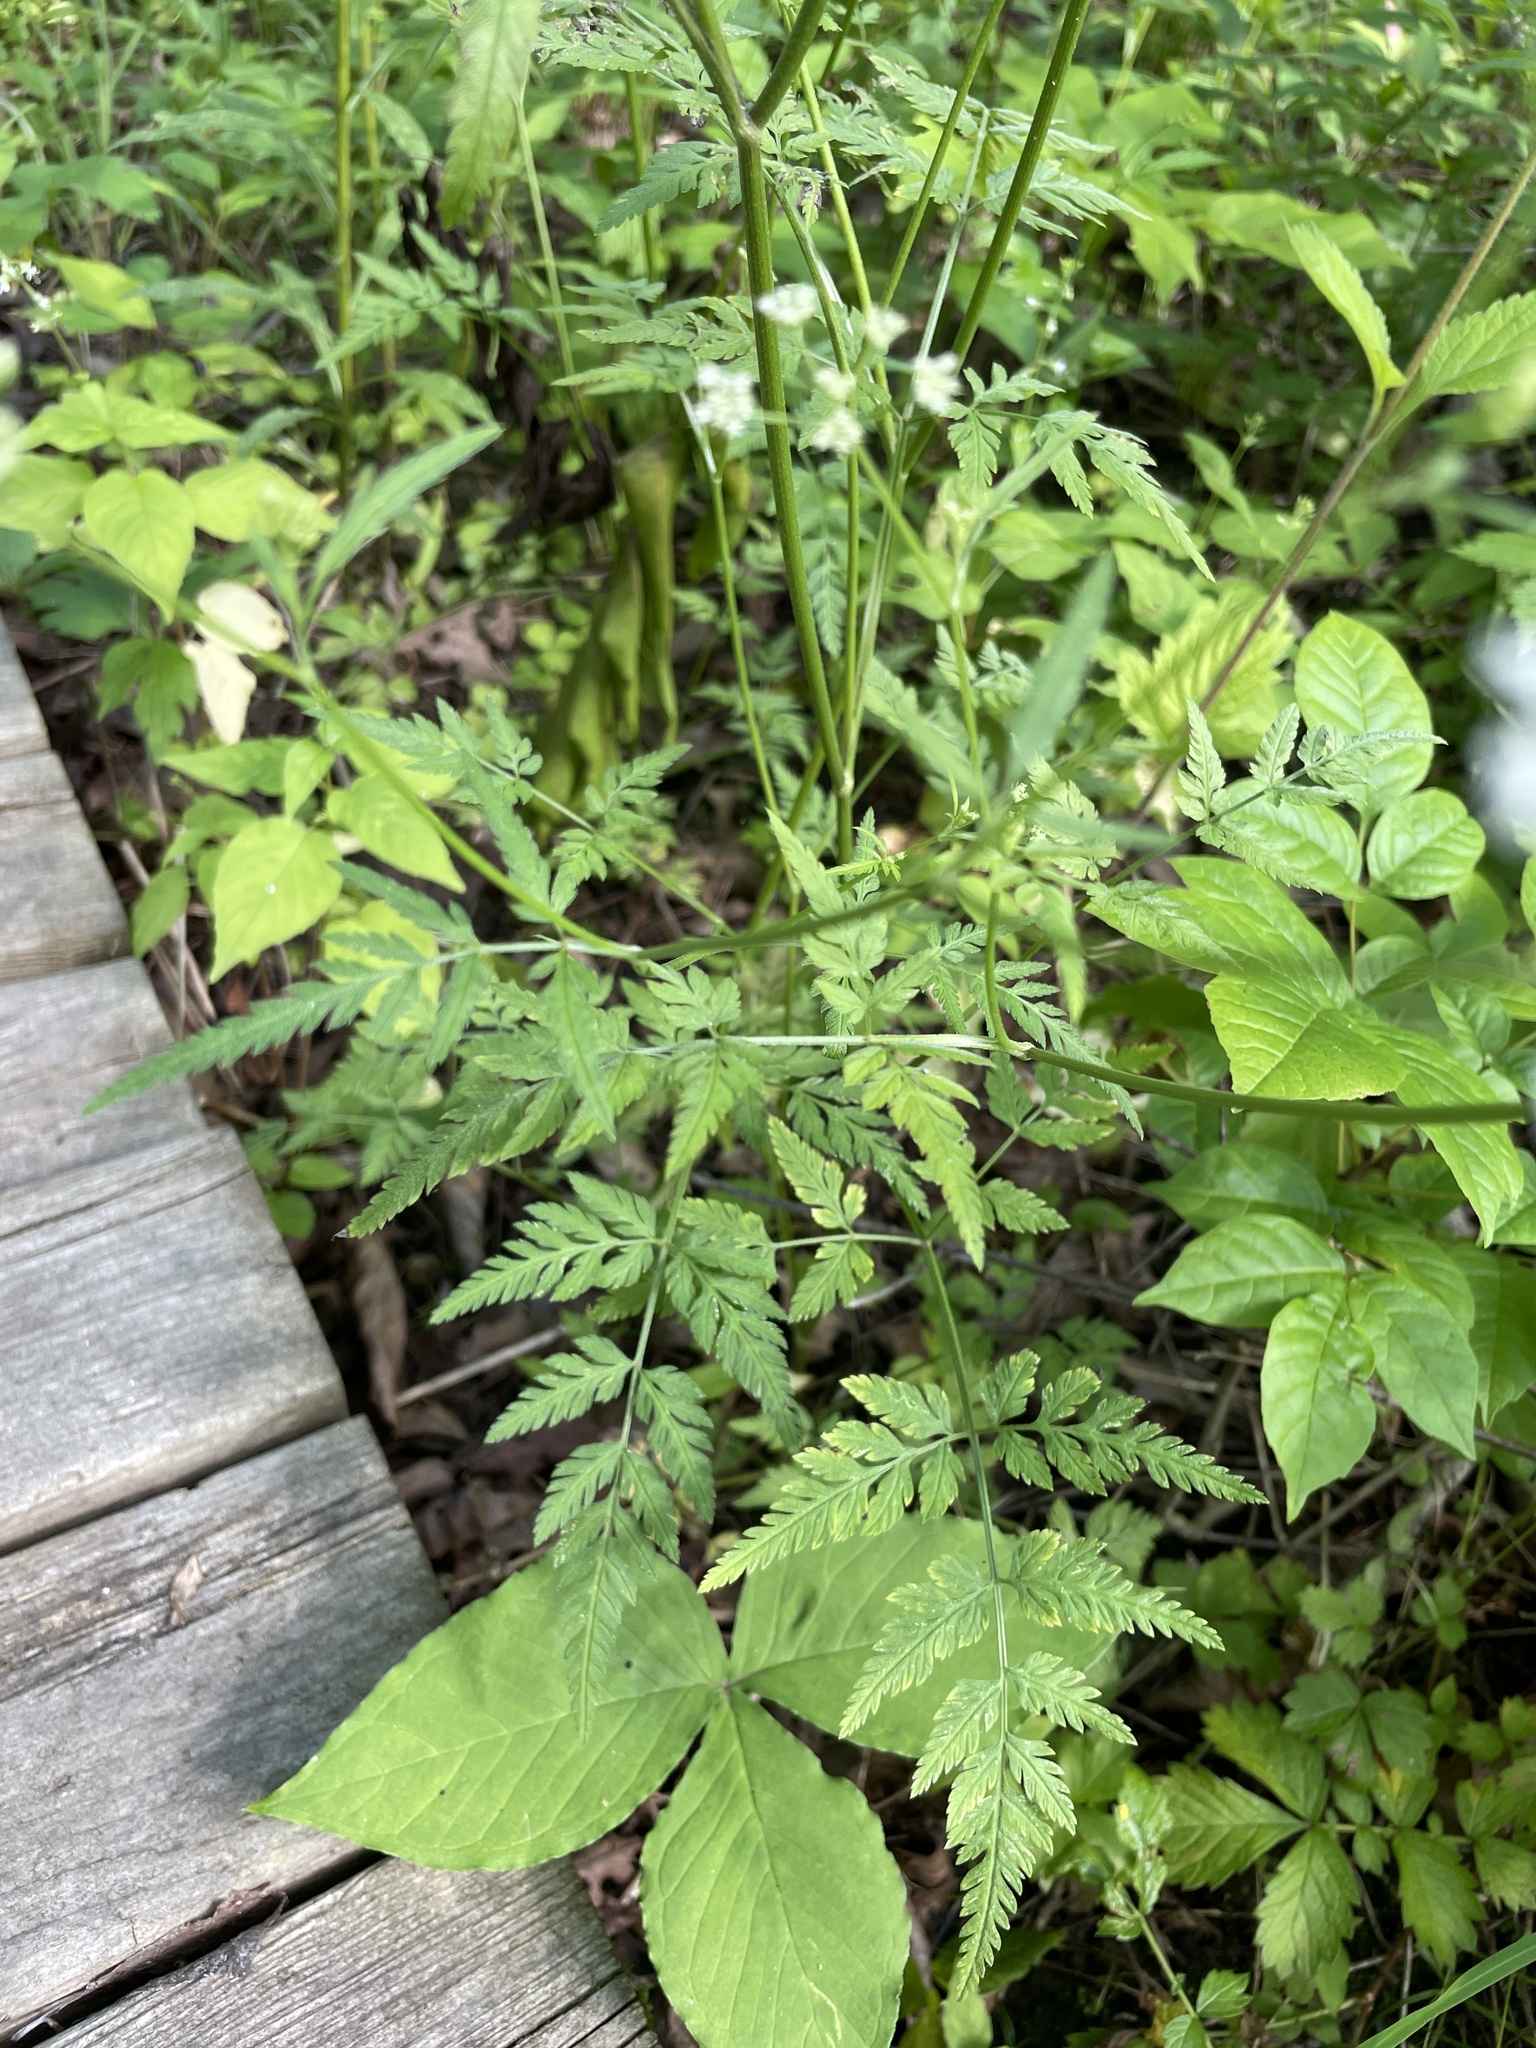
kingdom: Plantae
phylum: Tracheophyta
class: Magnoliopsida
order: Apiales
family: Apiaceae
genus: Torilis
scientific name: Torilis japonica
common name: Upright hedge-parsley
